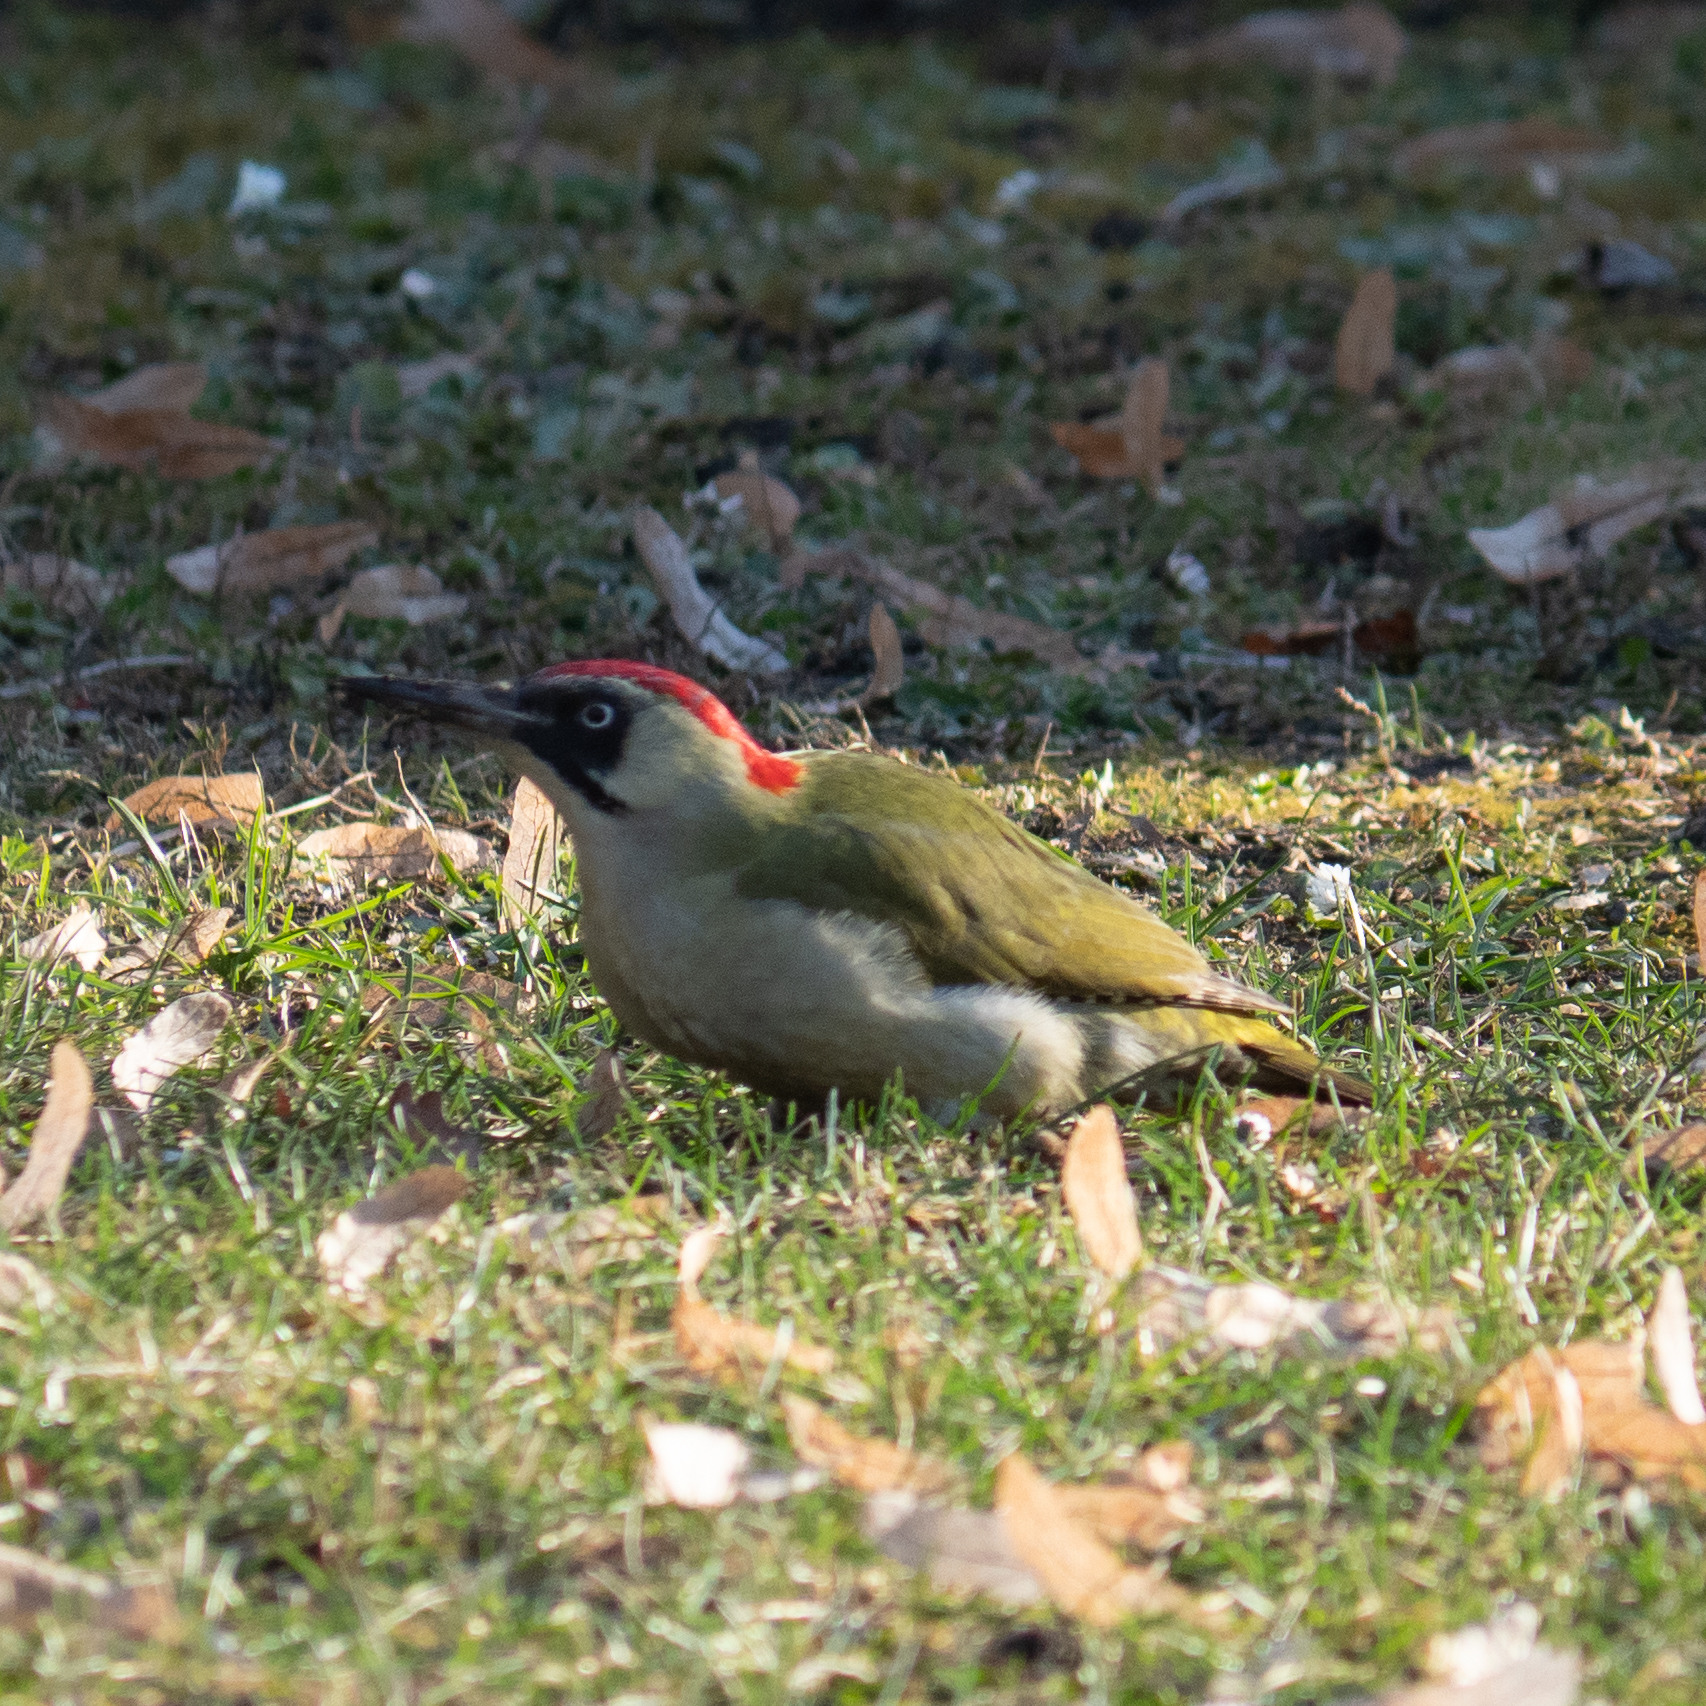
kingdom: Animalia
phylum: Chordata
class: Aves
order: Piciformes
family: Picidae
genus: Picus
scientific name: Picus viridis
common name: European green woodpecker
